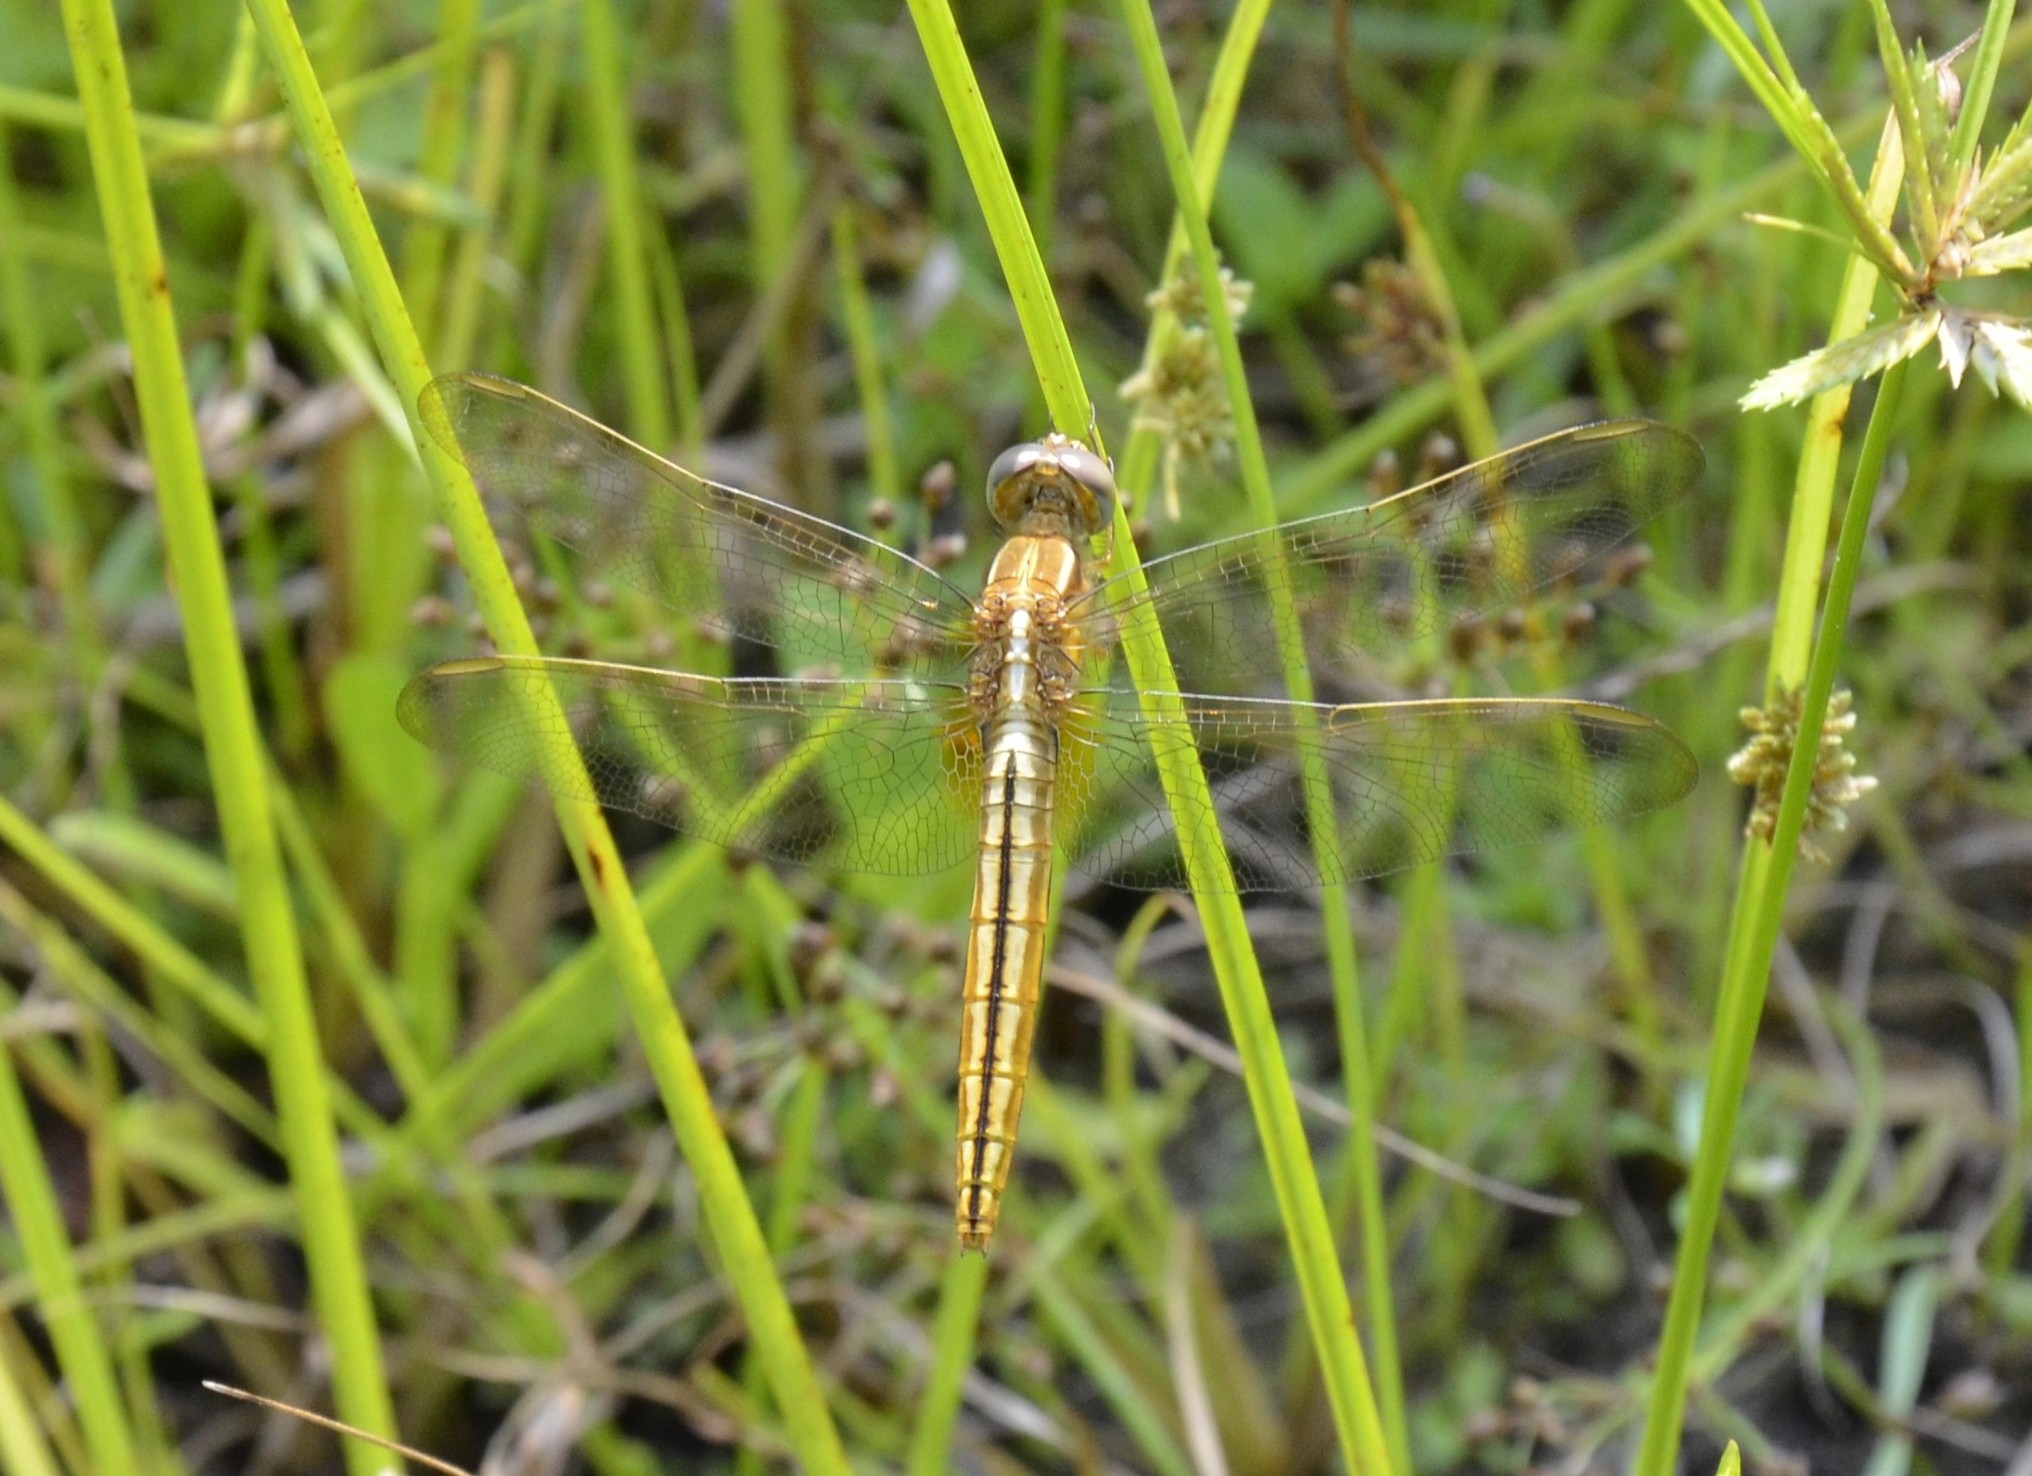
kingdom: Animalia
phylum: Arthropoda
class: Insecta
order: Odonata
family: Libellulidae
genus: Crocothemis
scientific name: Crocothemis servilia
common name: Scarlet skimmer
